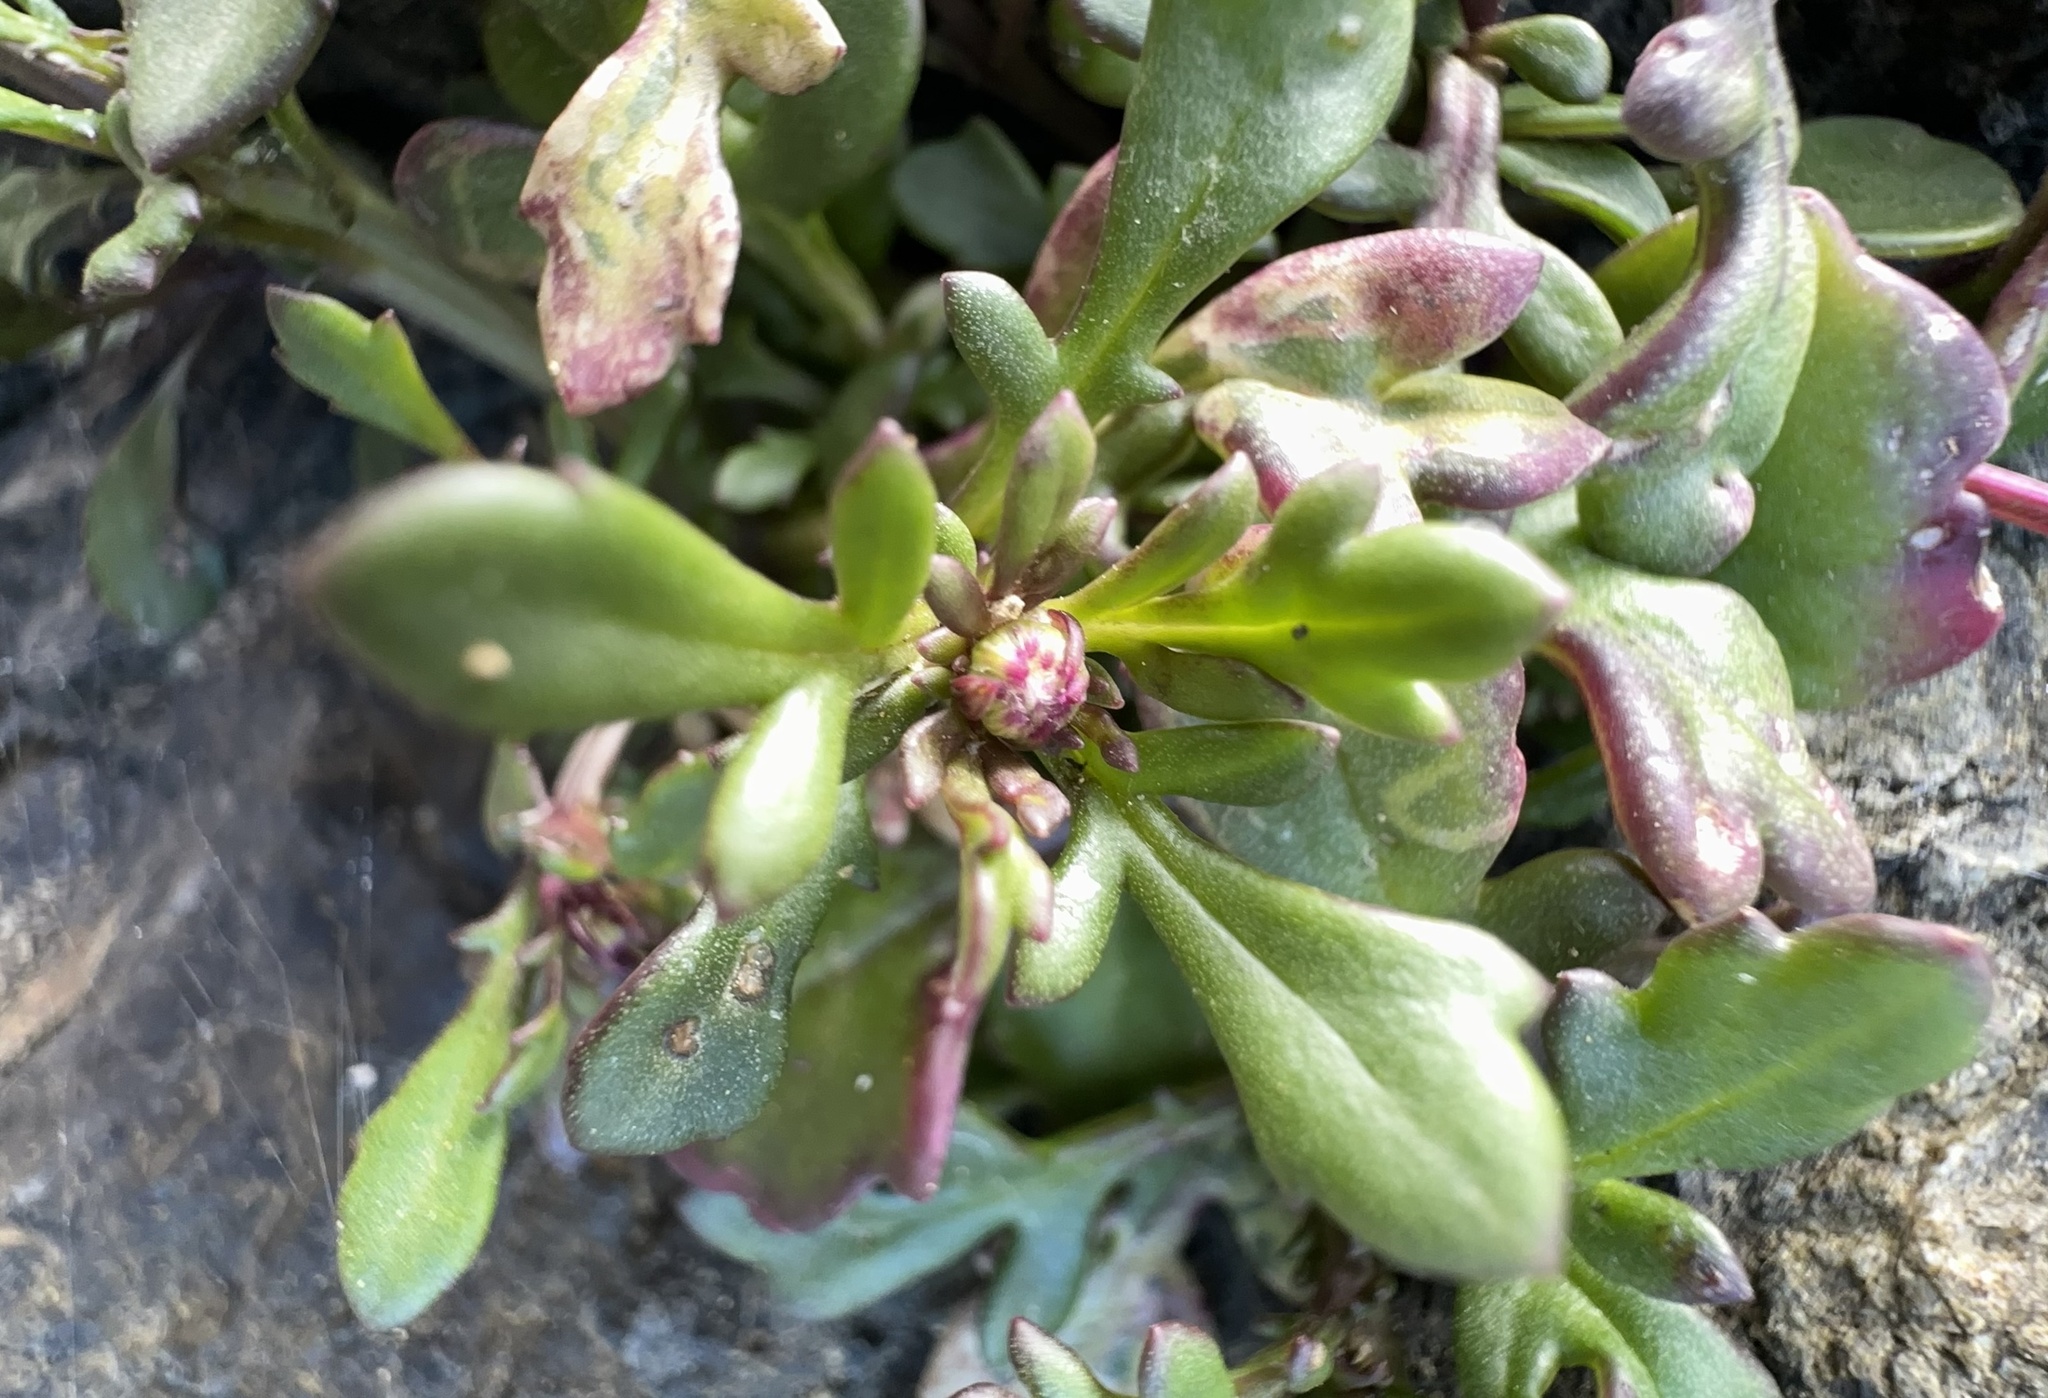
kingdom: Plantae
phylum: Tracheophyta
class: Magnoliopsida
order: Asterales
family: Asteraceae
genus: Senecio
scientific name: Senecio lautus
